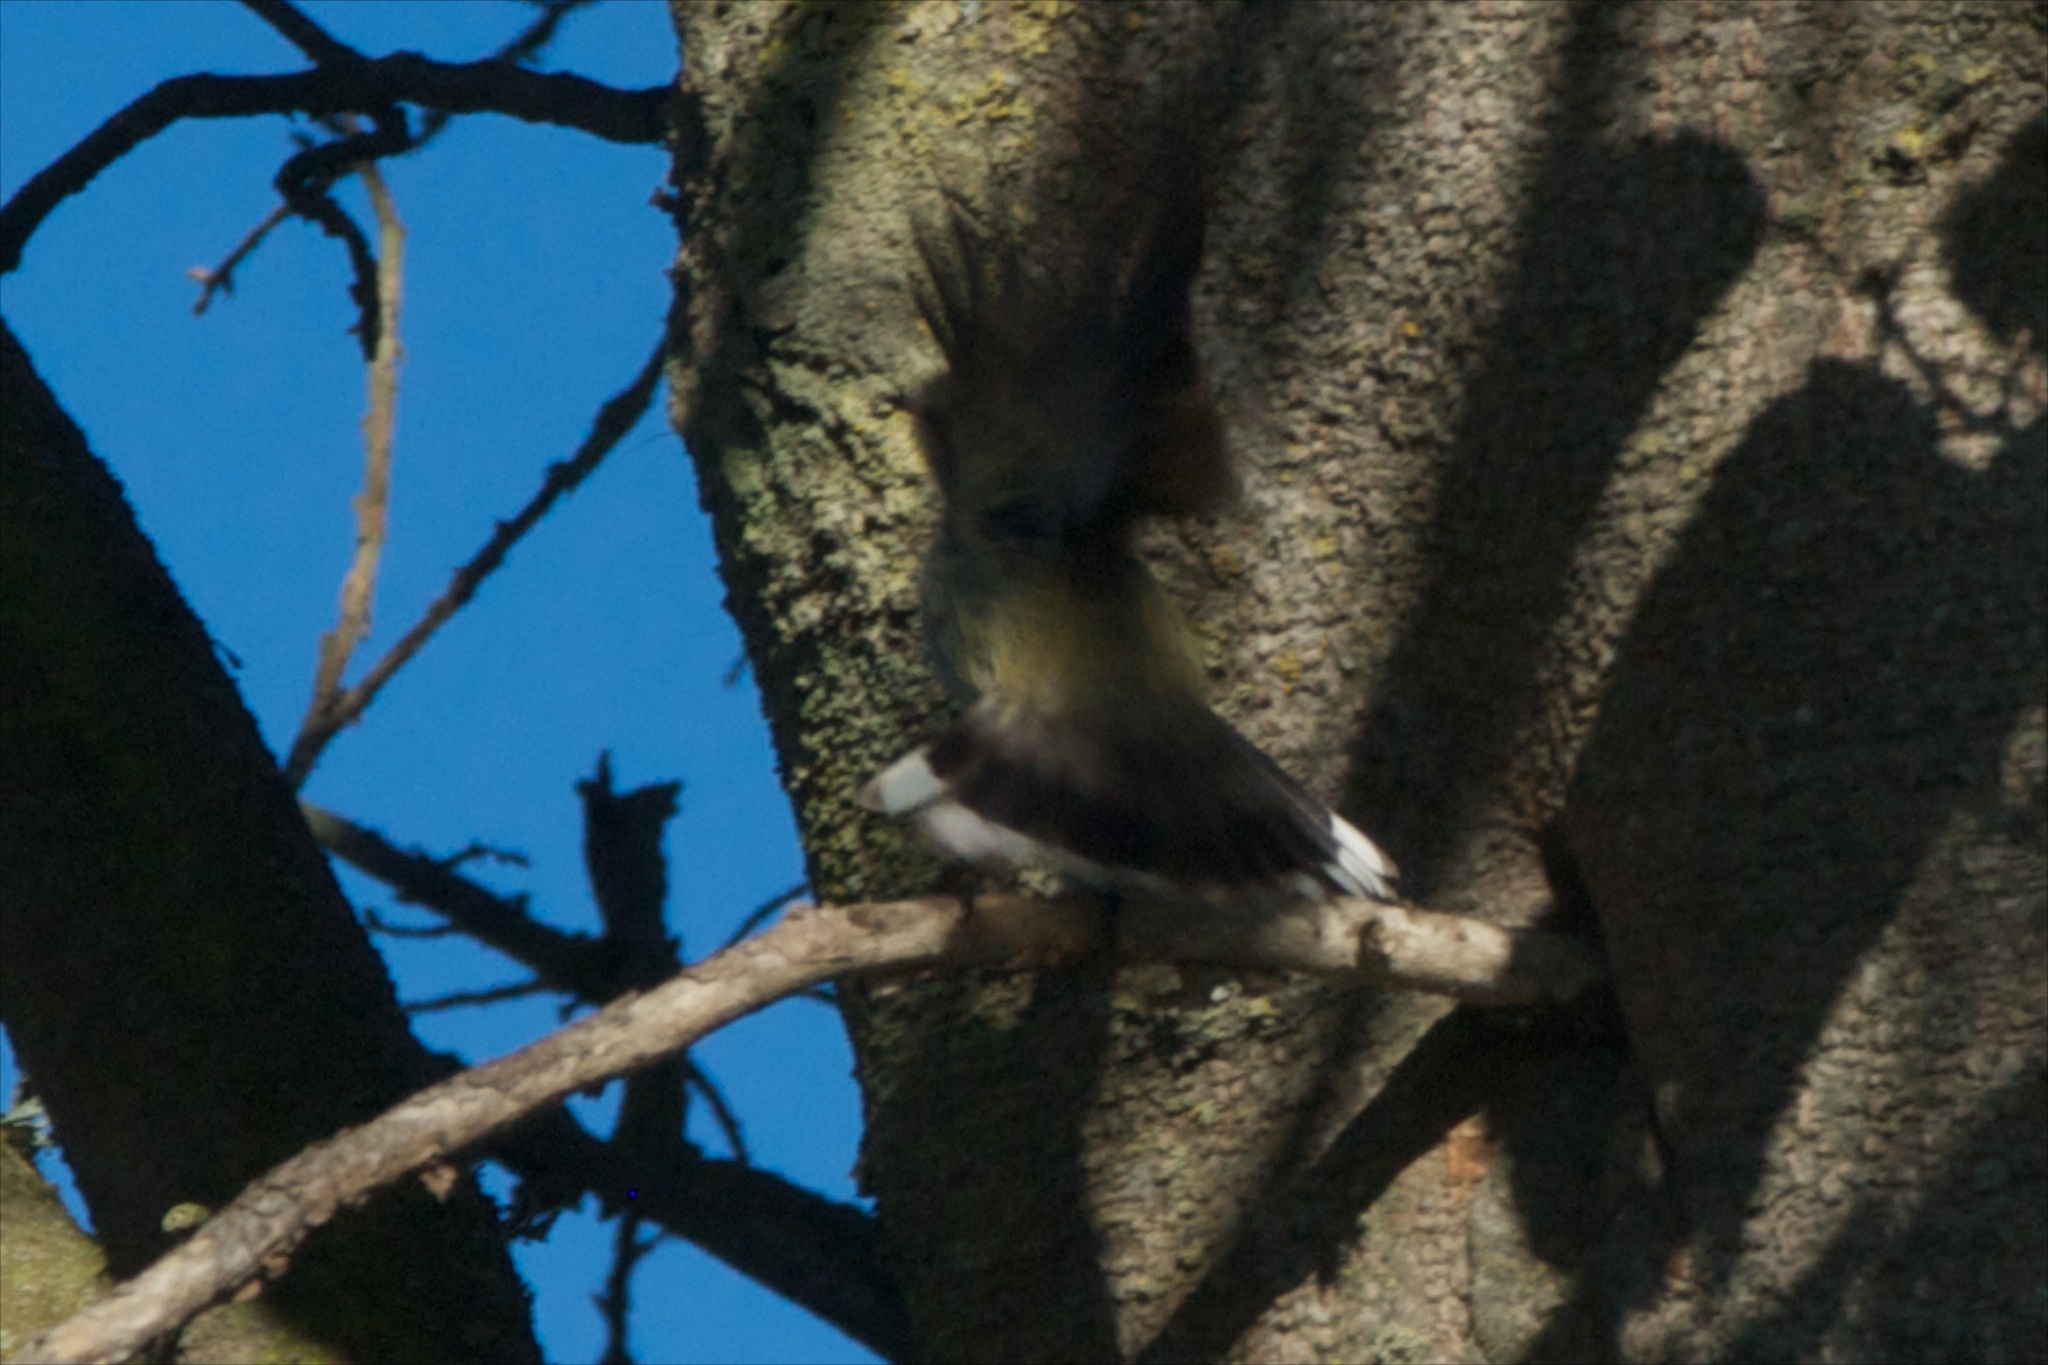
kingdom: Animalia
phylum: Chordata
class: Aves
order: Passeriformes
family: Acanthizidae
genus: Gerygone
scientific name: Gerygone igata
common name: Grey gerygone
